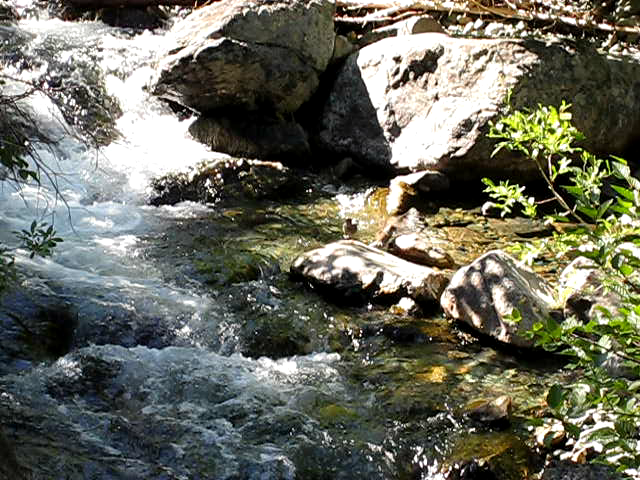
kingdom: Animalia
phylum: Chordata
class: Aves
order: Passeriformes
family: Cinclidae
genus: Cinclus
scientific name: Cinclus mexicanus
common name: American dipper
